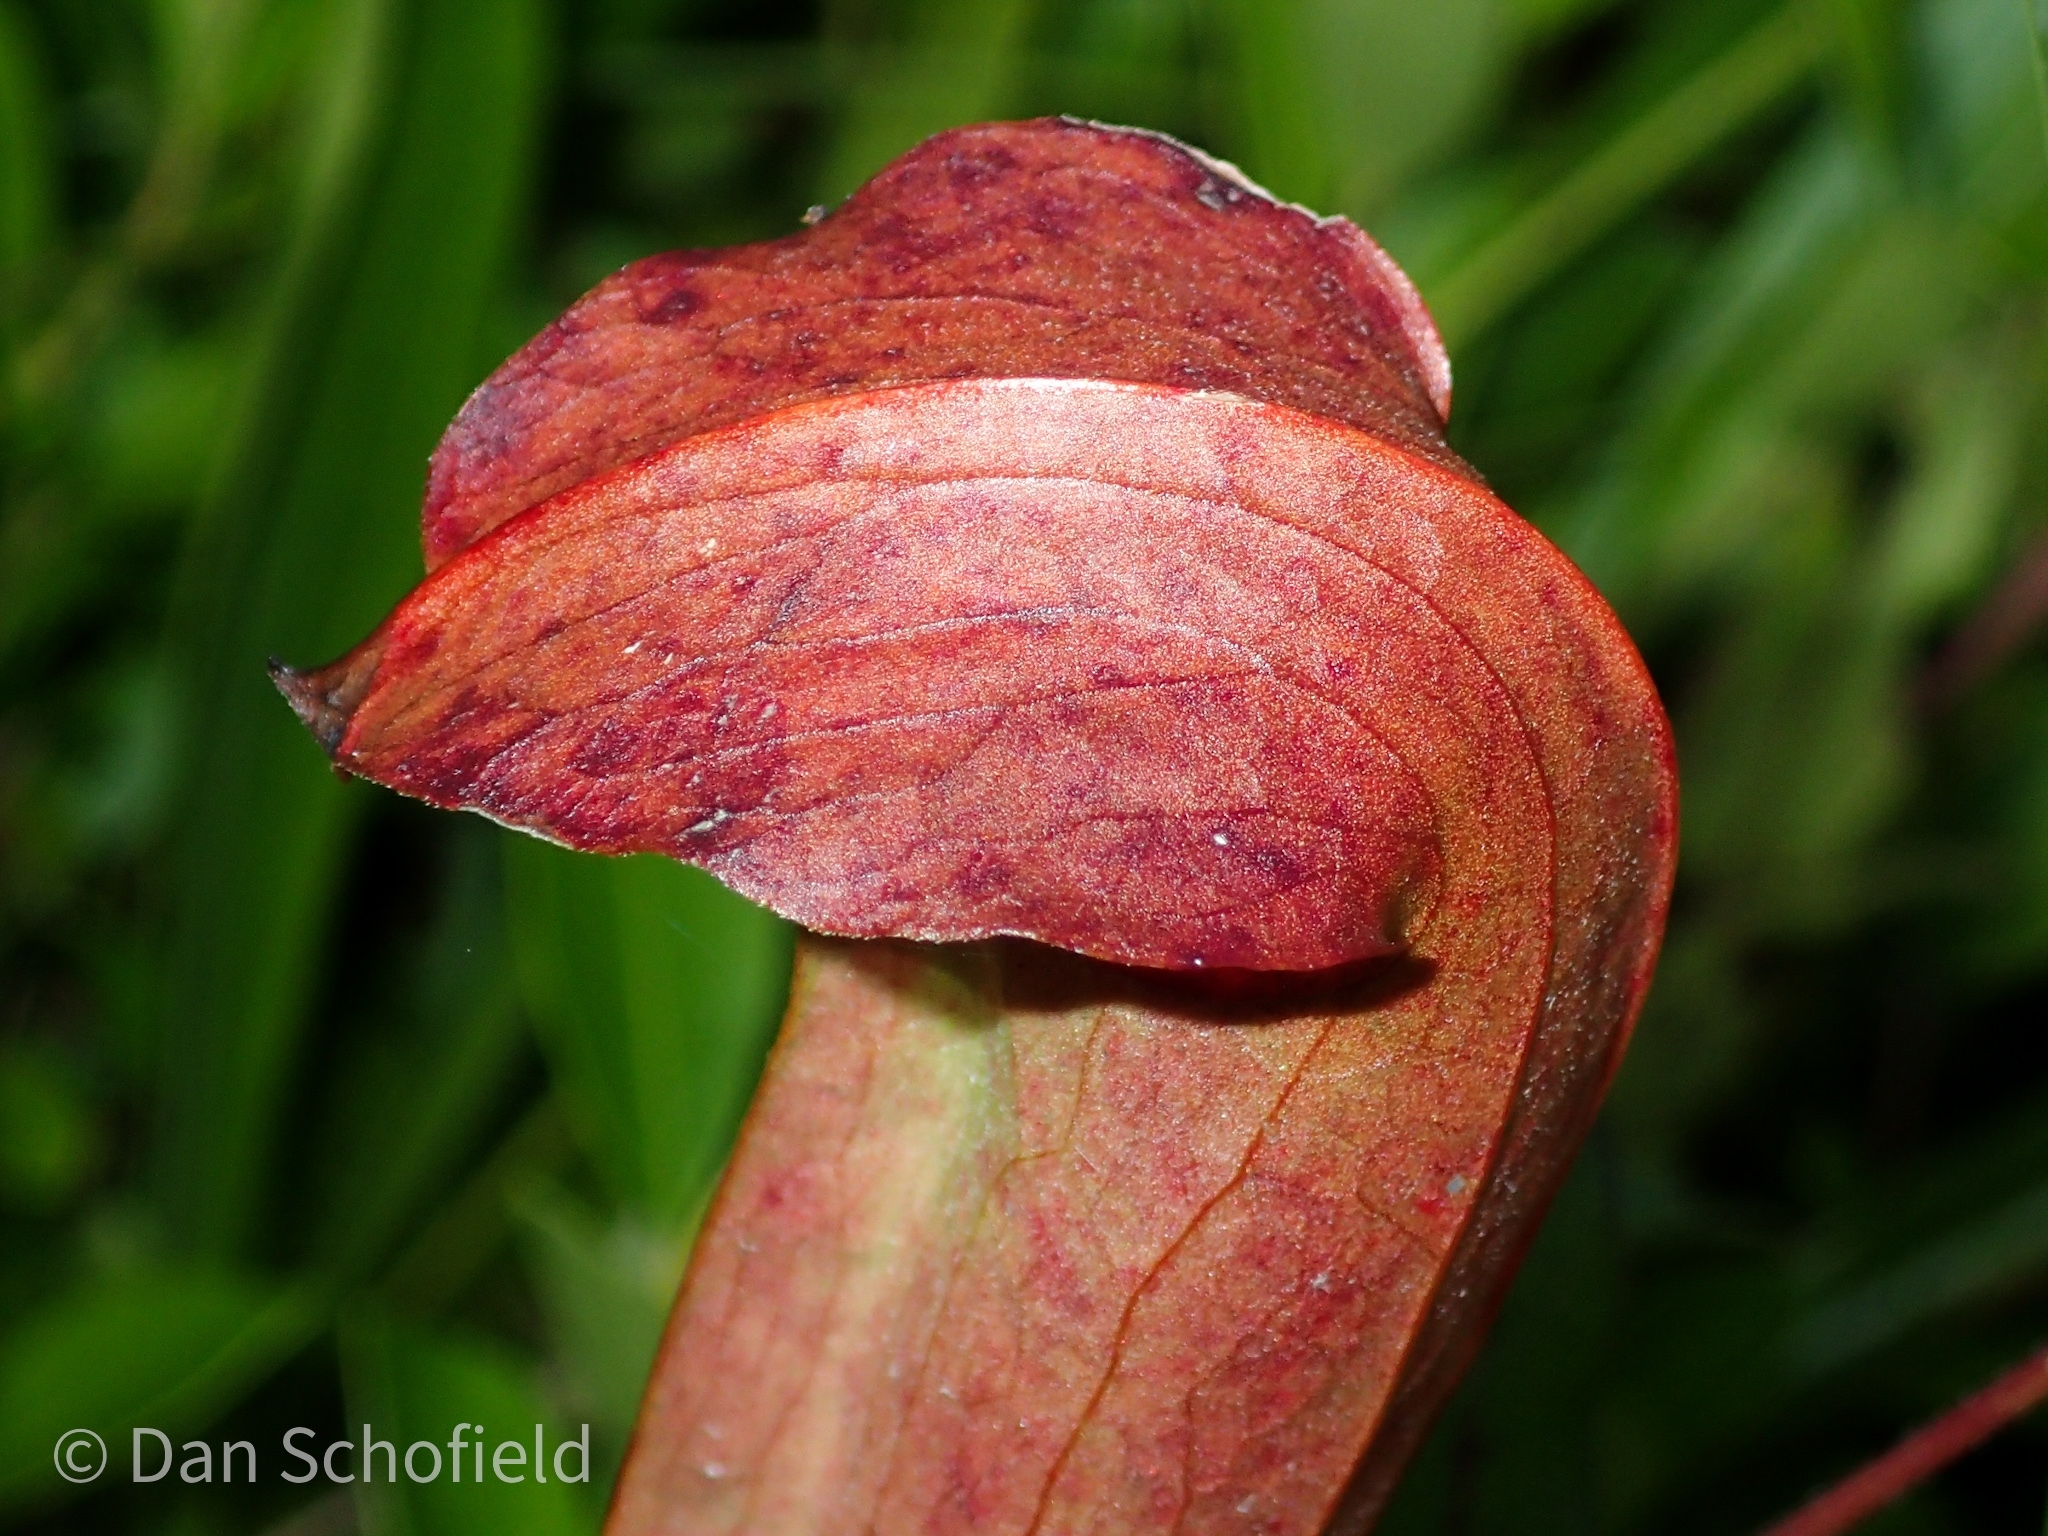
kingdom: Plantae
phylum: Tracheophyta
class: Magnoliopsida
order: Ericales
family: Sarraceniaceae
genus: Sarracenia
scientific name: Sarracenia rehderi
